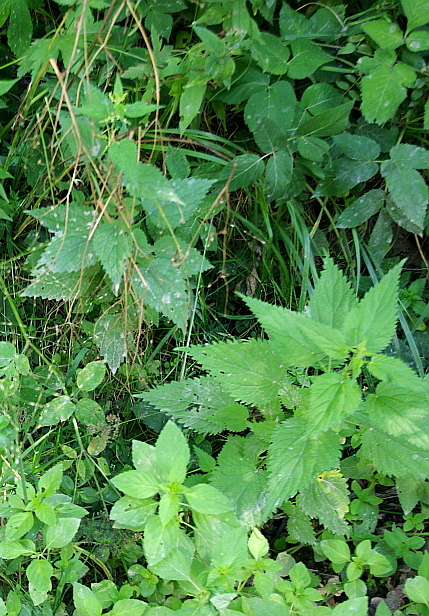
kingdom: Plantae
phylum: Tracheophyta
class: Magnoliopsida
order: Rosales
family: Urticaceae
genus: Urtica
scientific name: Urtica dioica
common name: Common nettle
